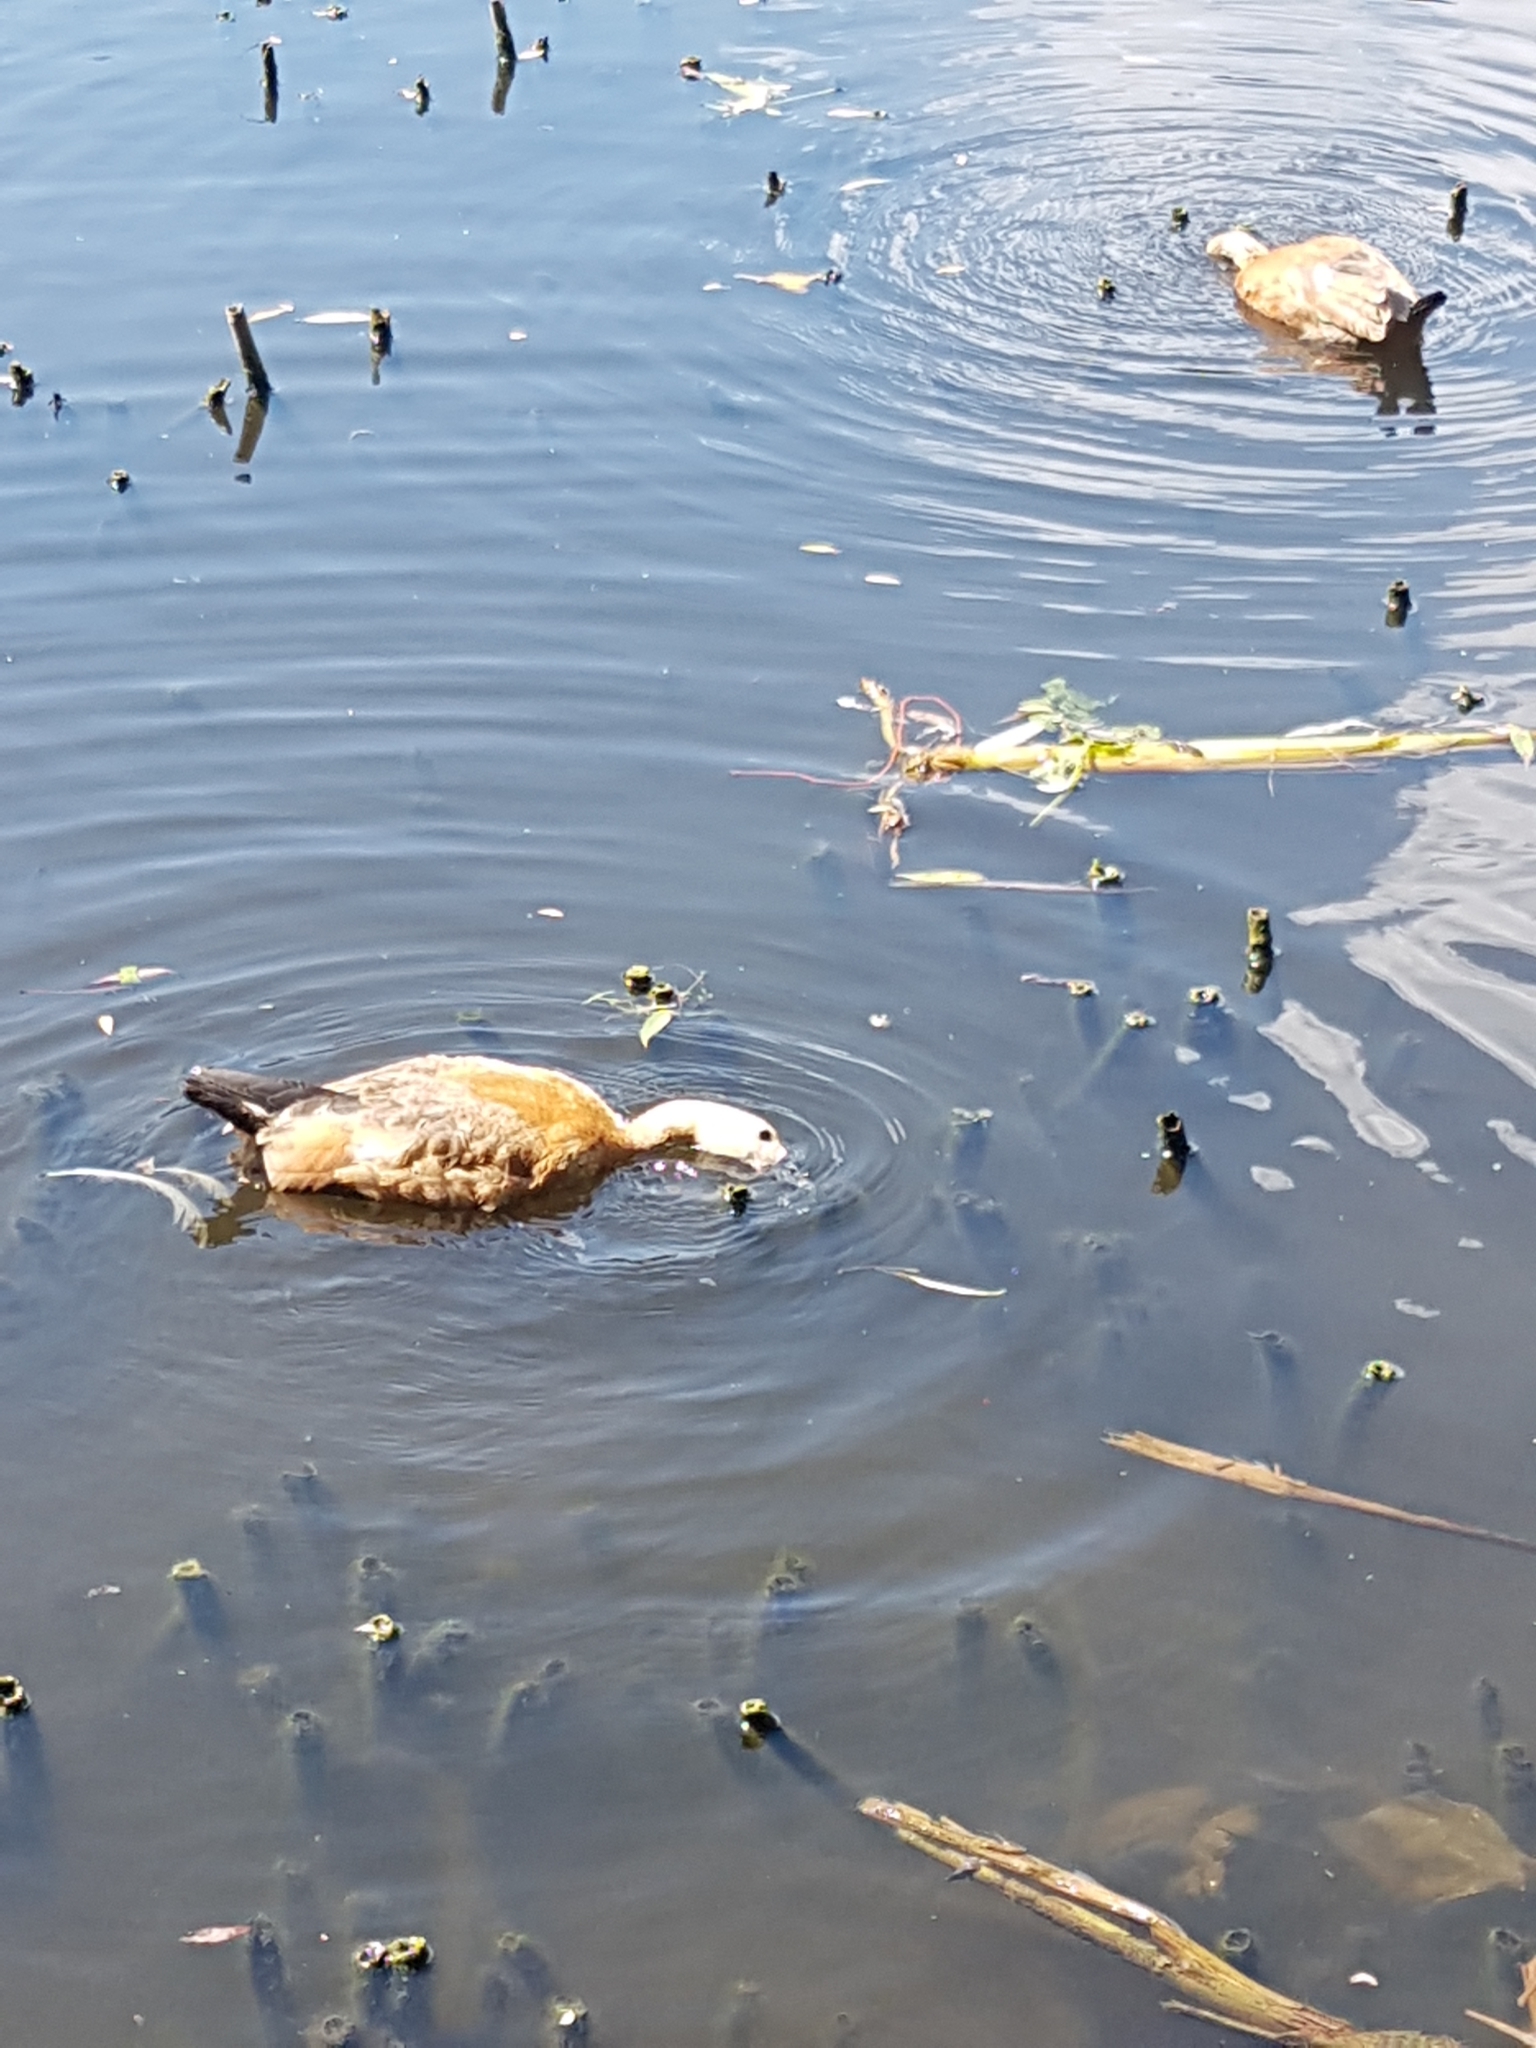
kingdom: Animalia
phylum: Chordata
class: Aves
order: Anseriformes
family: Anatidae
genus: Tadorna
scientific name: Tadorna ferruginea
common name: Ruddy shelduck
